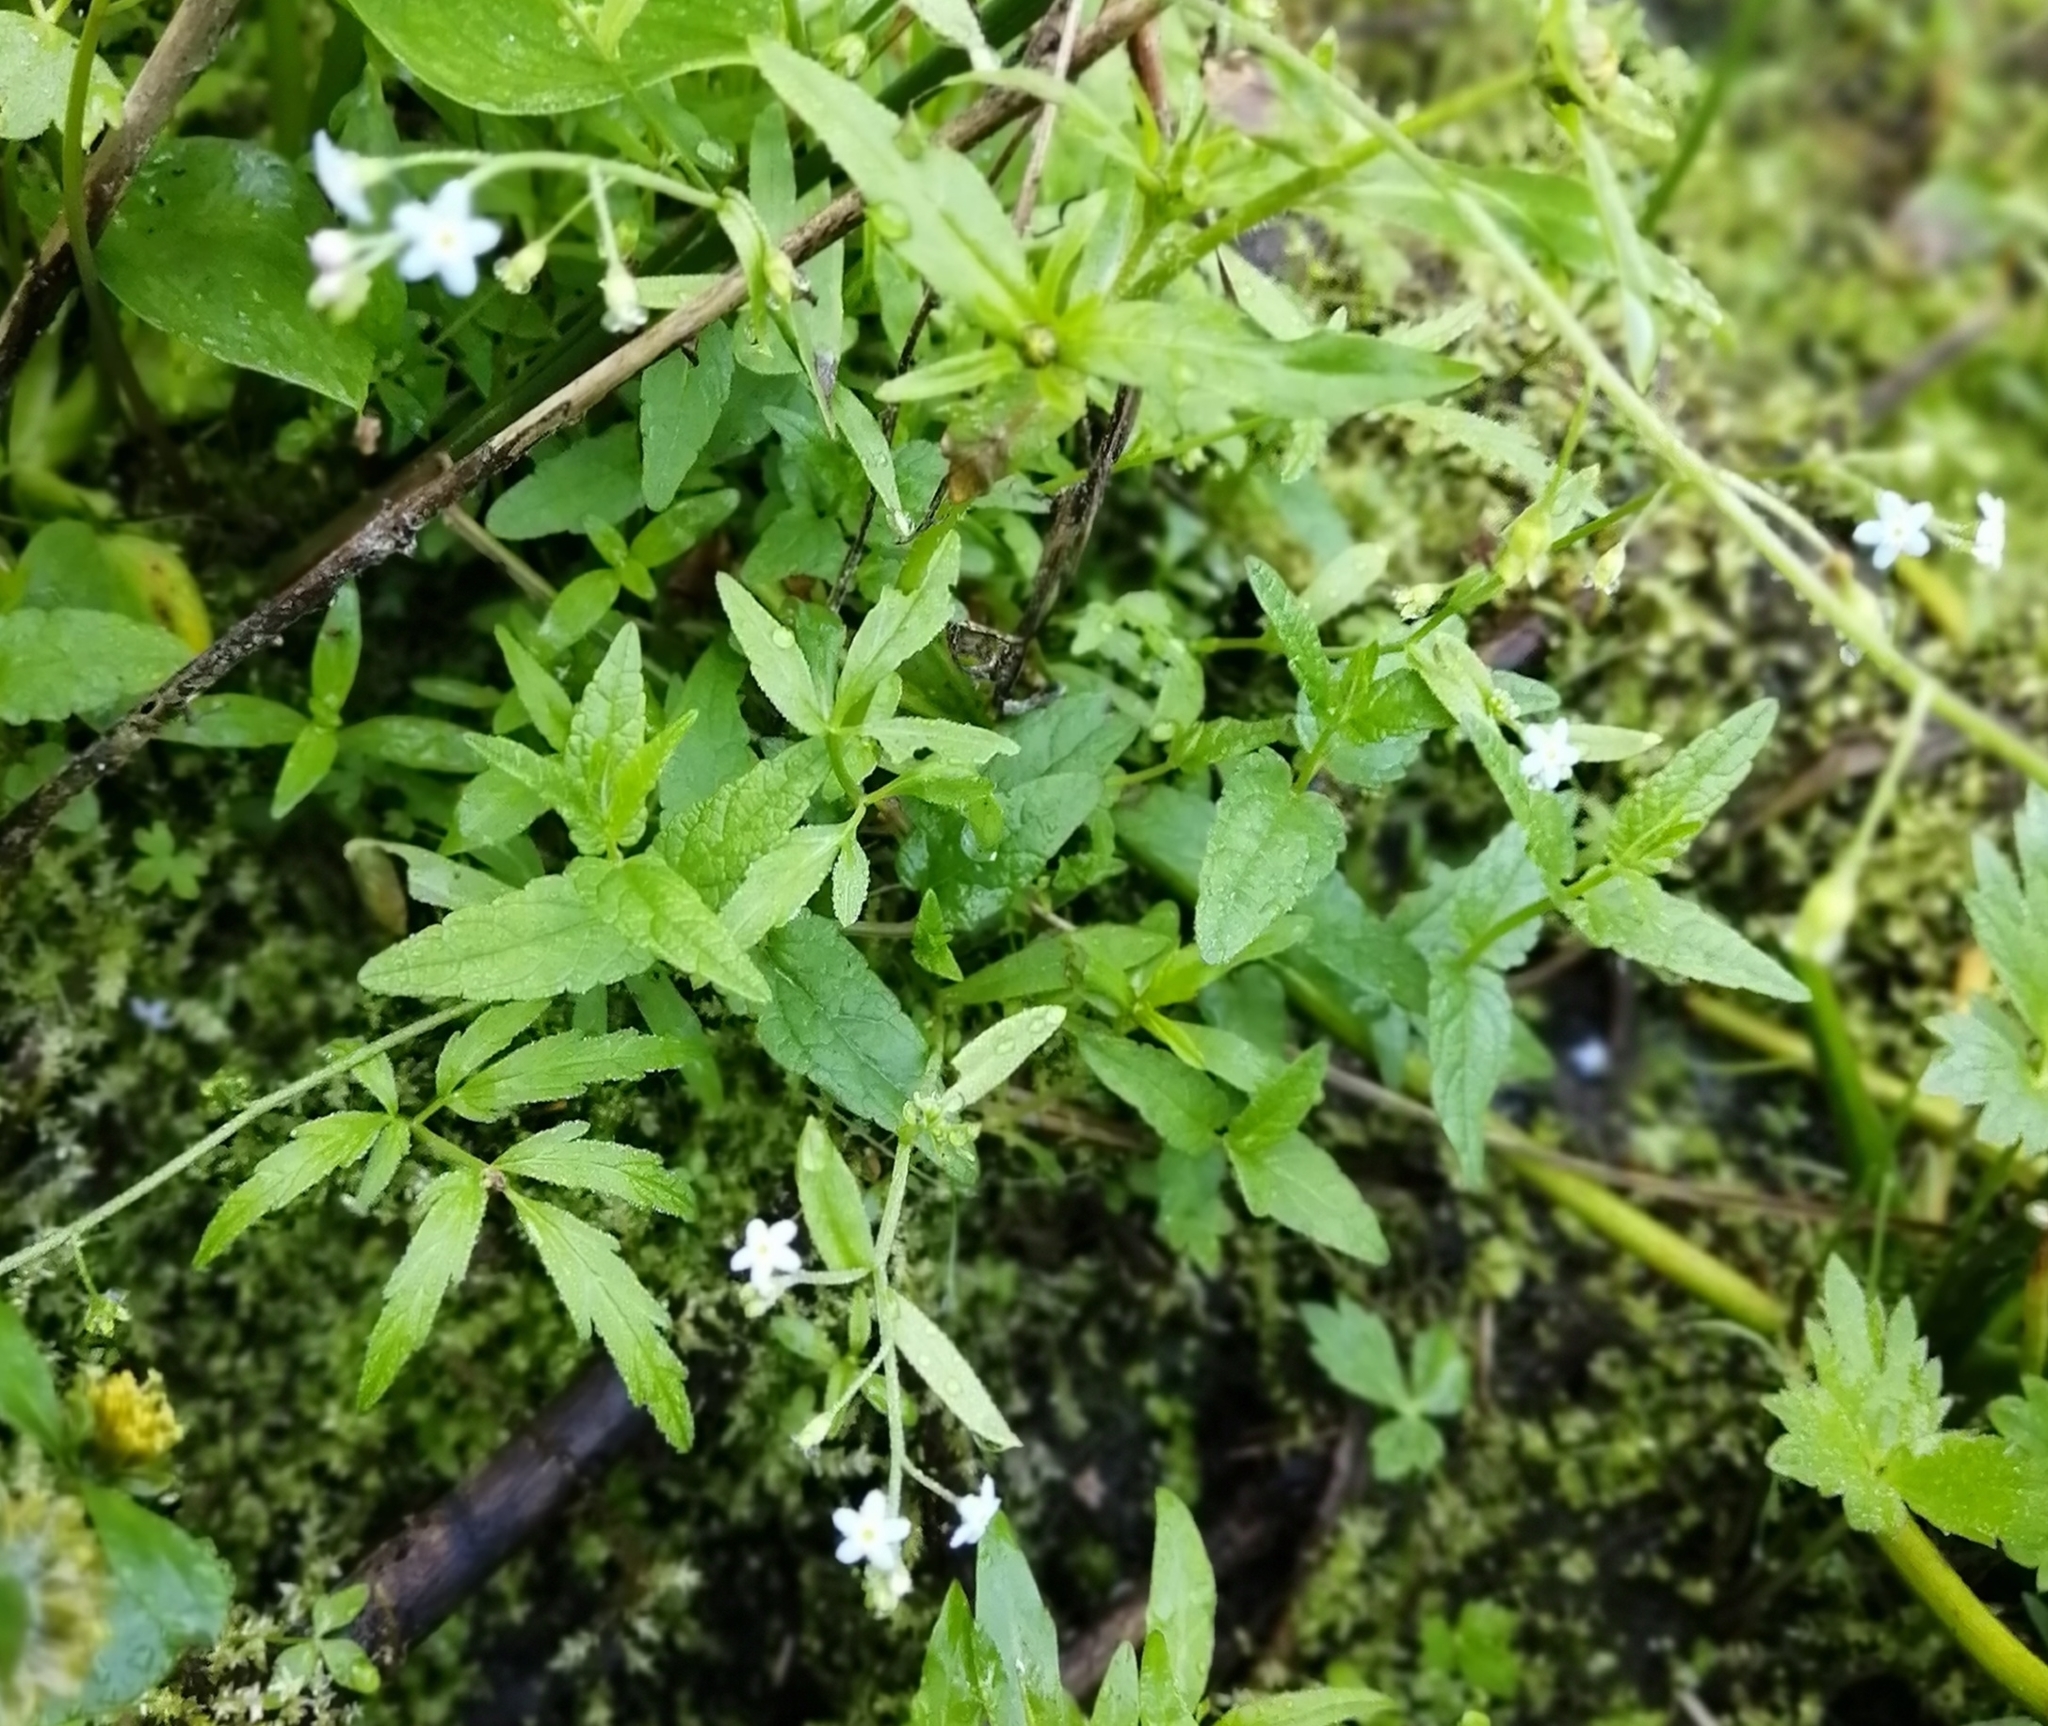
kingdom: Plantae
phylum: Tracheophyta
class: Magnoliopsida
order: Boraginales
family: Boraginaceae
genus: Myosotis
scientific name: Myosotis laxa
